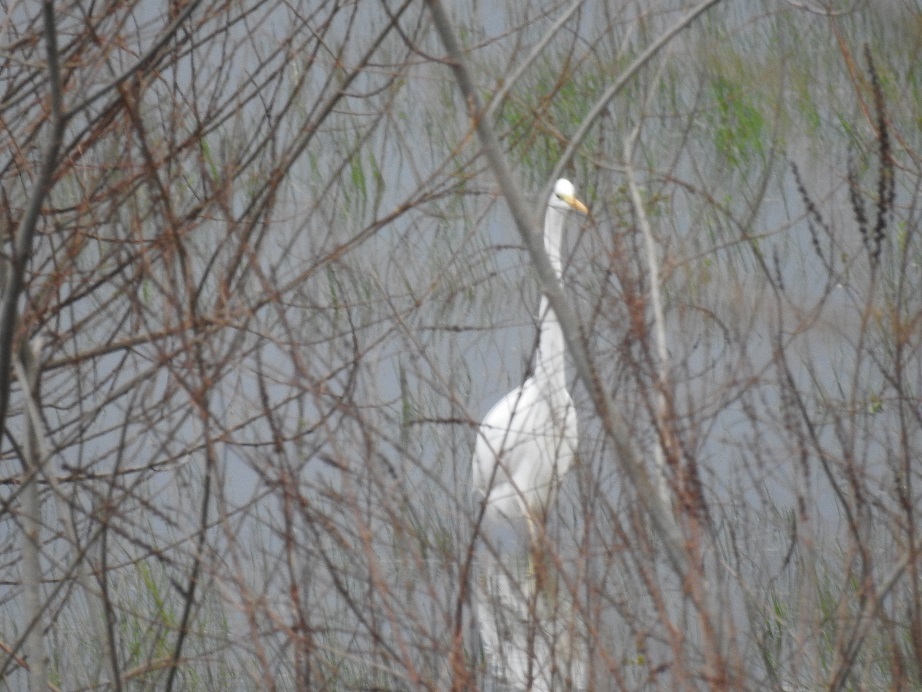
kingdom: Animalia
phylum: Chordata
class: Aves
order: Pelecaniformes
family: Ardeidae
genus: Ardea
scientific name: Ardea alba
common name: Great egret
